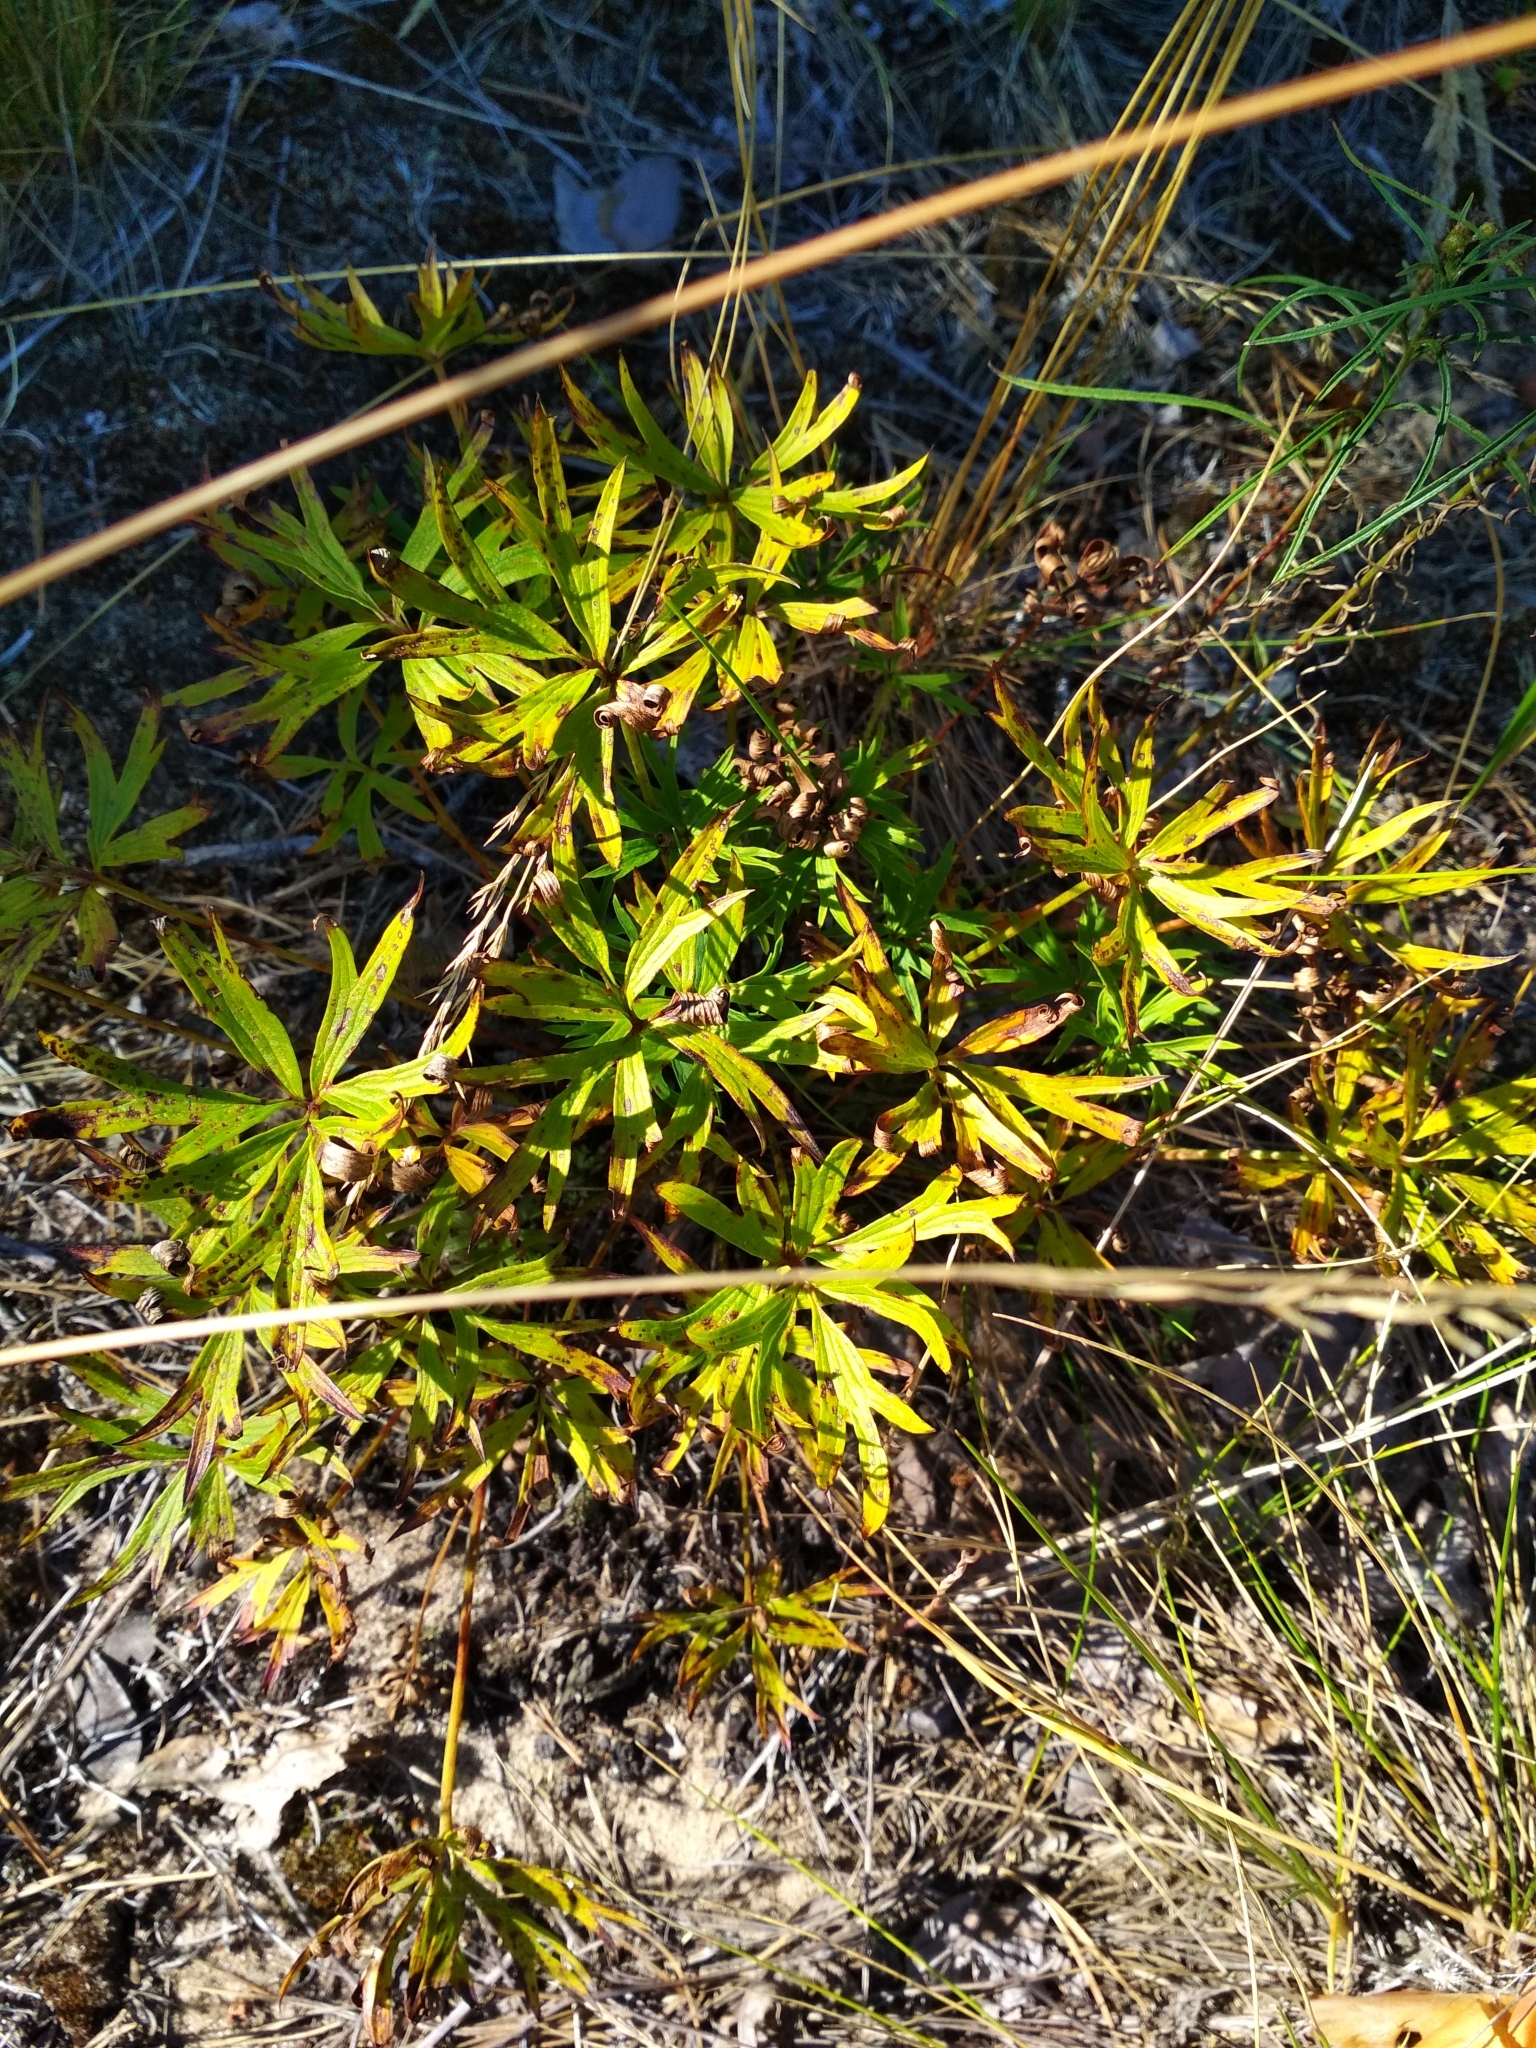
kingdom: Plantae
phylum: Tracheophyta
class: Magnoliopsida
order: Ranunculales
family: Ranunculaceae
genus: Pulsatilla
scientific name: Pulsatilla patens
